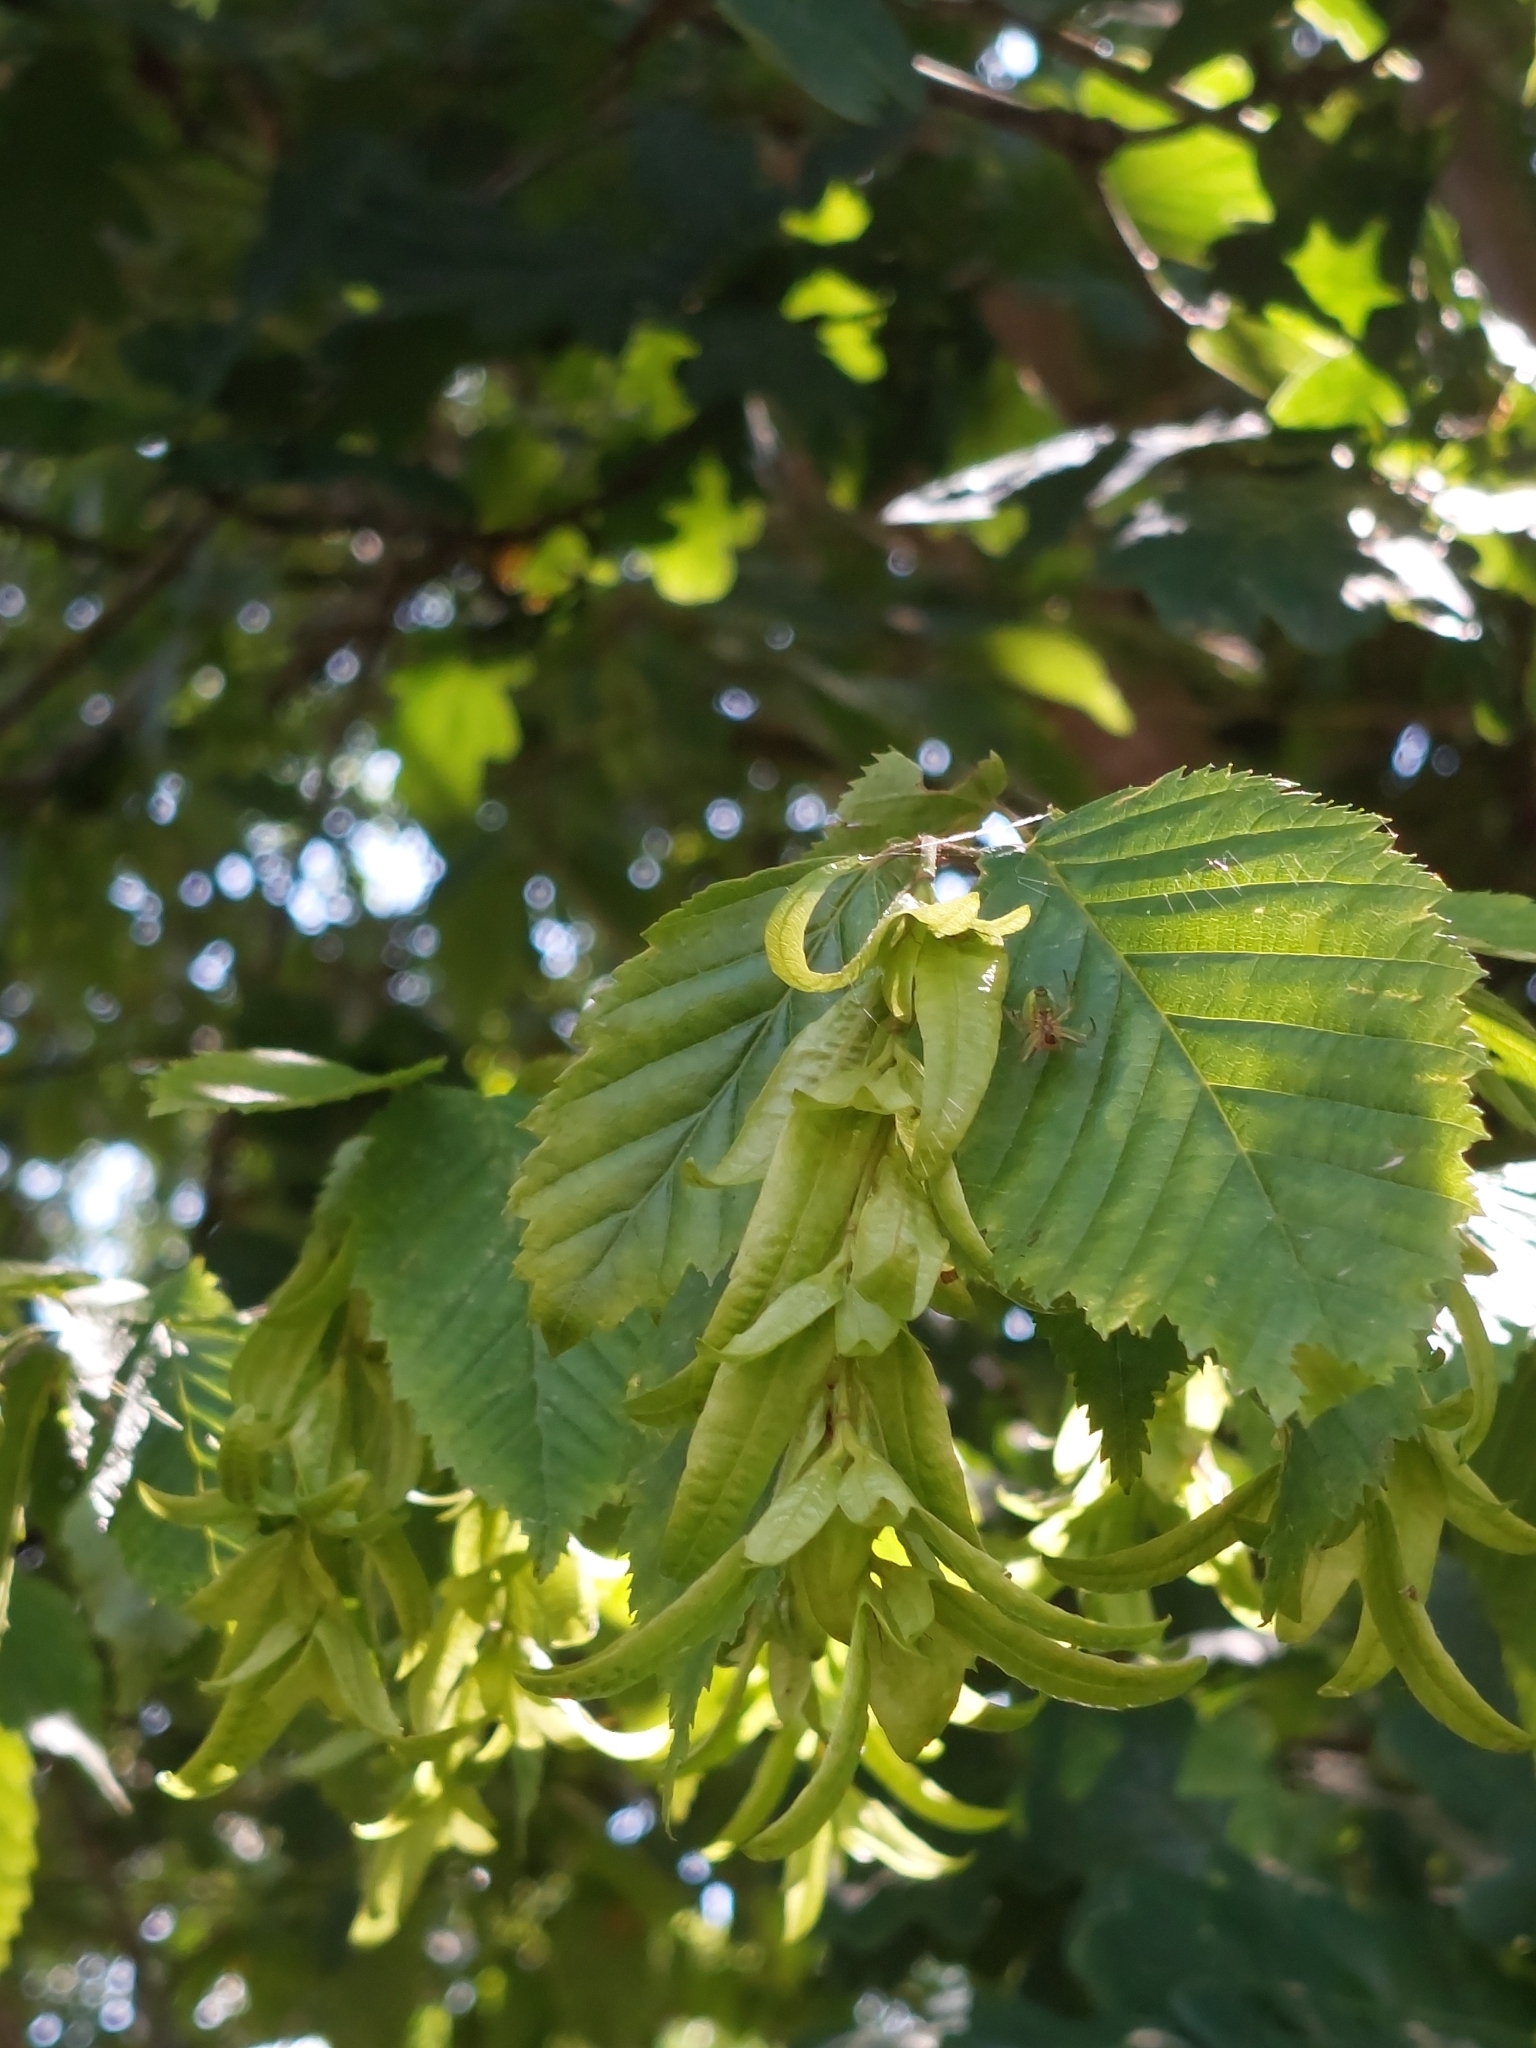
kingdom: Plantae
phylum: Tracheophyta
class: Magnoliopsida
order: Fagales
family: Betulaceae
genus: Carpinus
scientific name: Carpinus betulus
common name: Hornbeam
